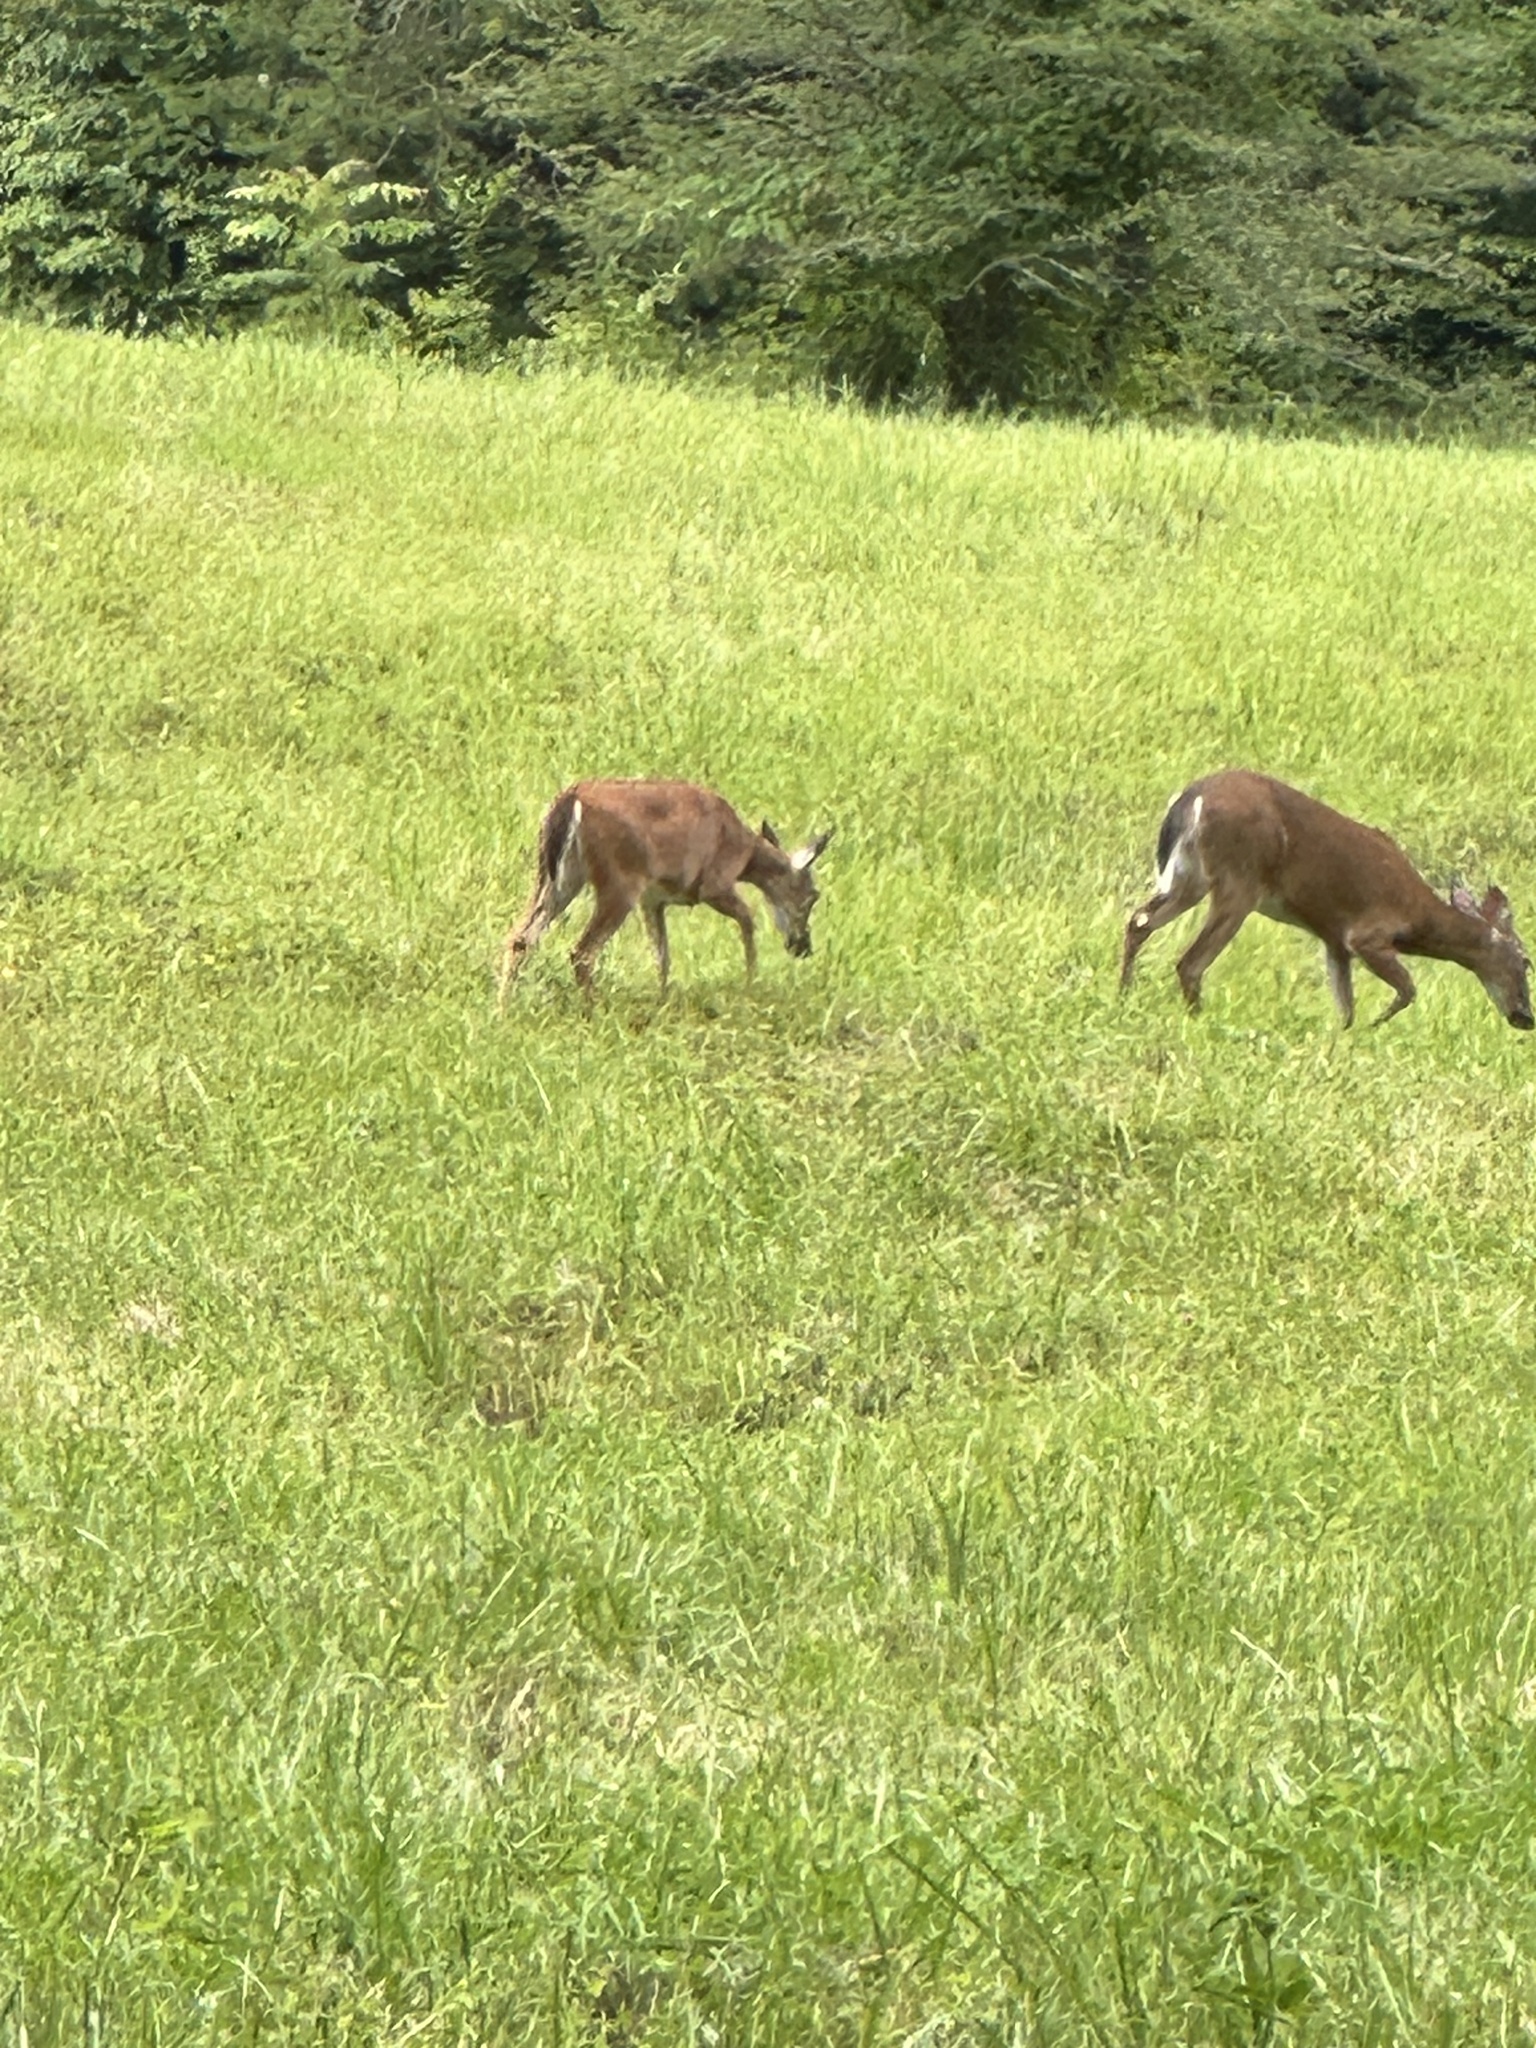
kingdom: Animalia
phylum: Chordata
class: Mammalia
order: Artiodactyla
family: Cervidae
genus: Odocoileus
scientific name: Odocoileus virginianus
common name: White-tailed deer
